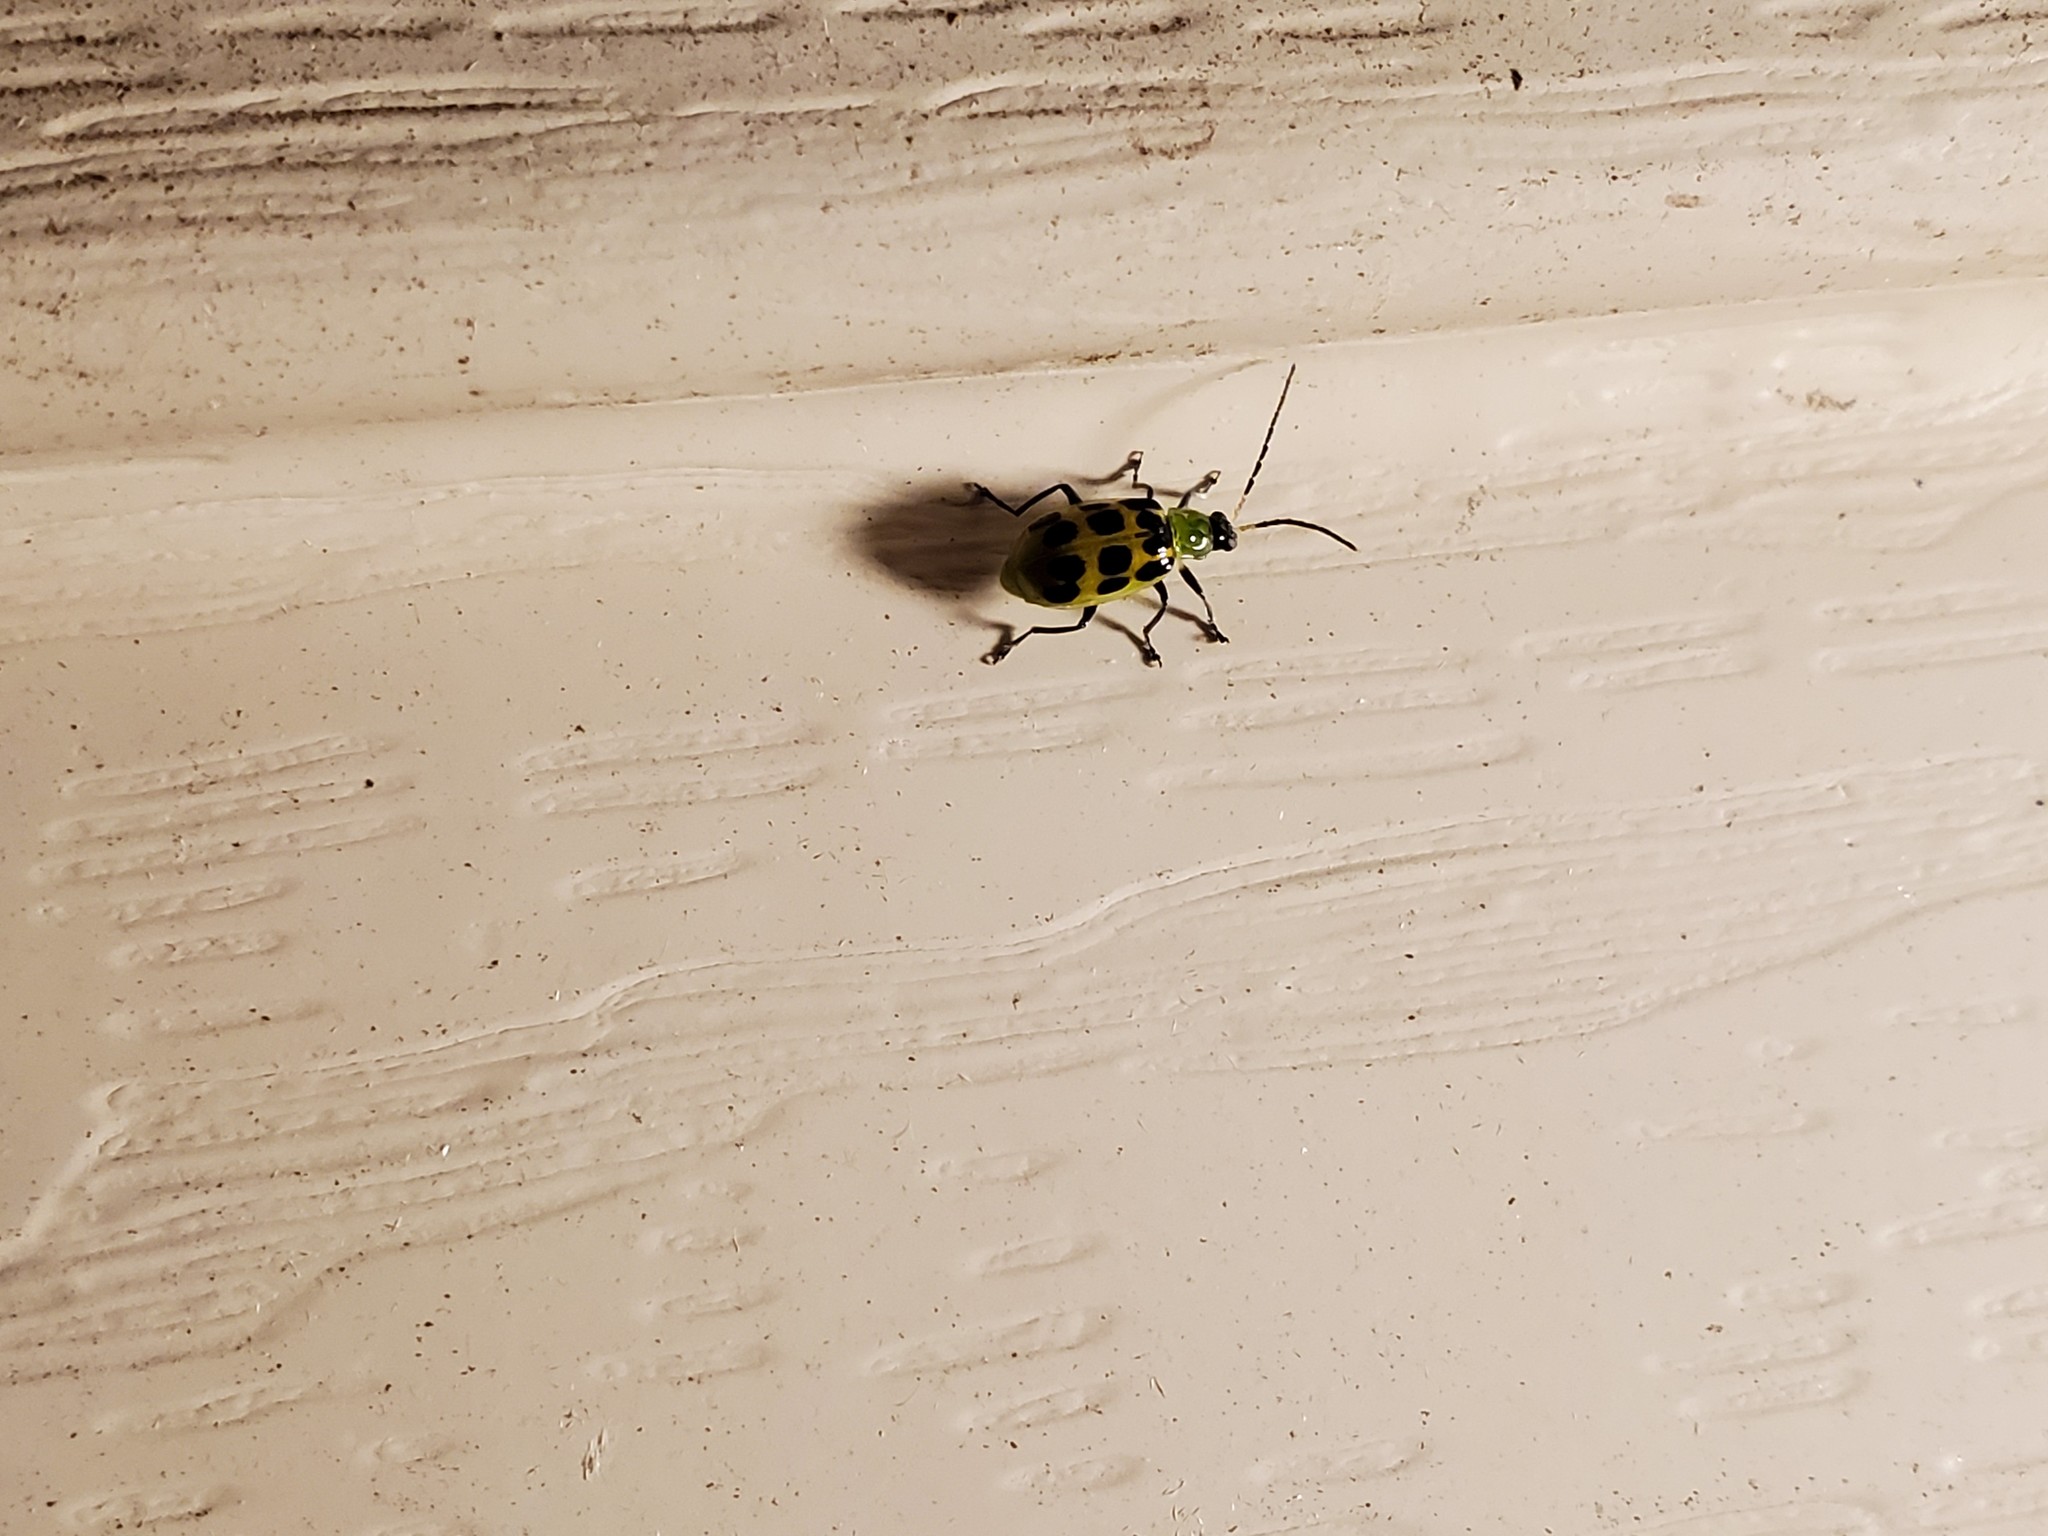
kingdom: Animalia
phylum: Arthropoda
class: Insecta
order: Coleoptera
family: Chrysomelidae
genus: Diabrotica
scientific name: Diabrotica undecimpunctata
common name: Spotted cucumber beetle
